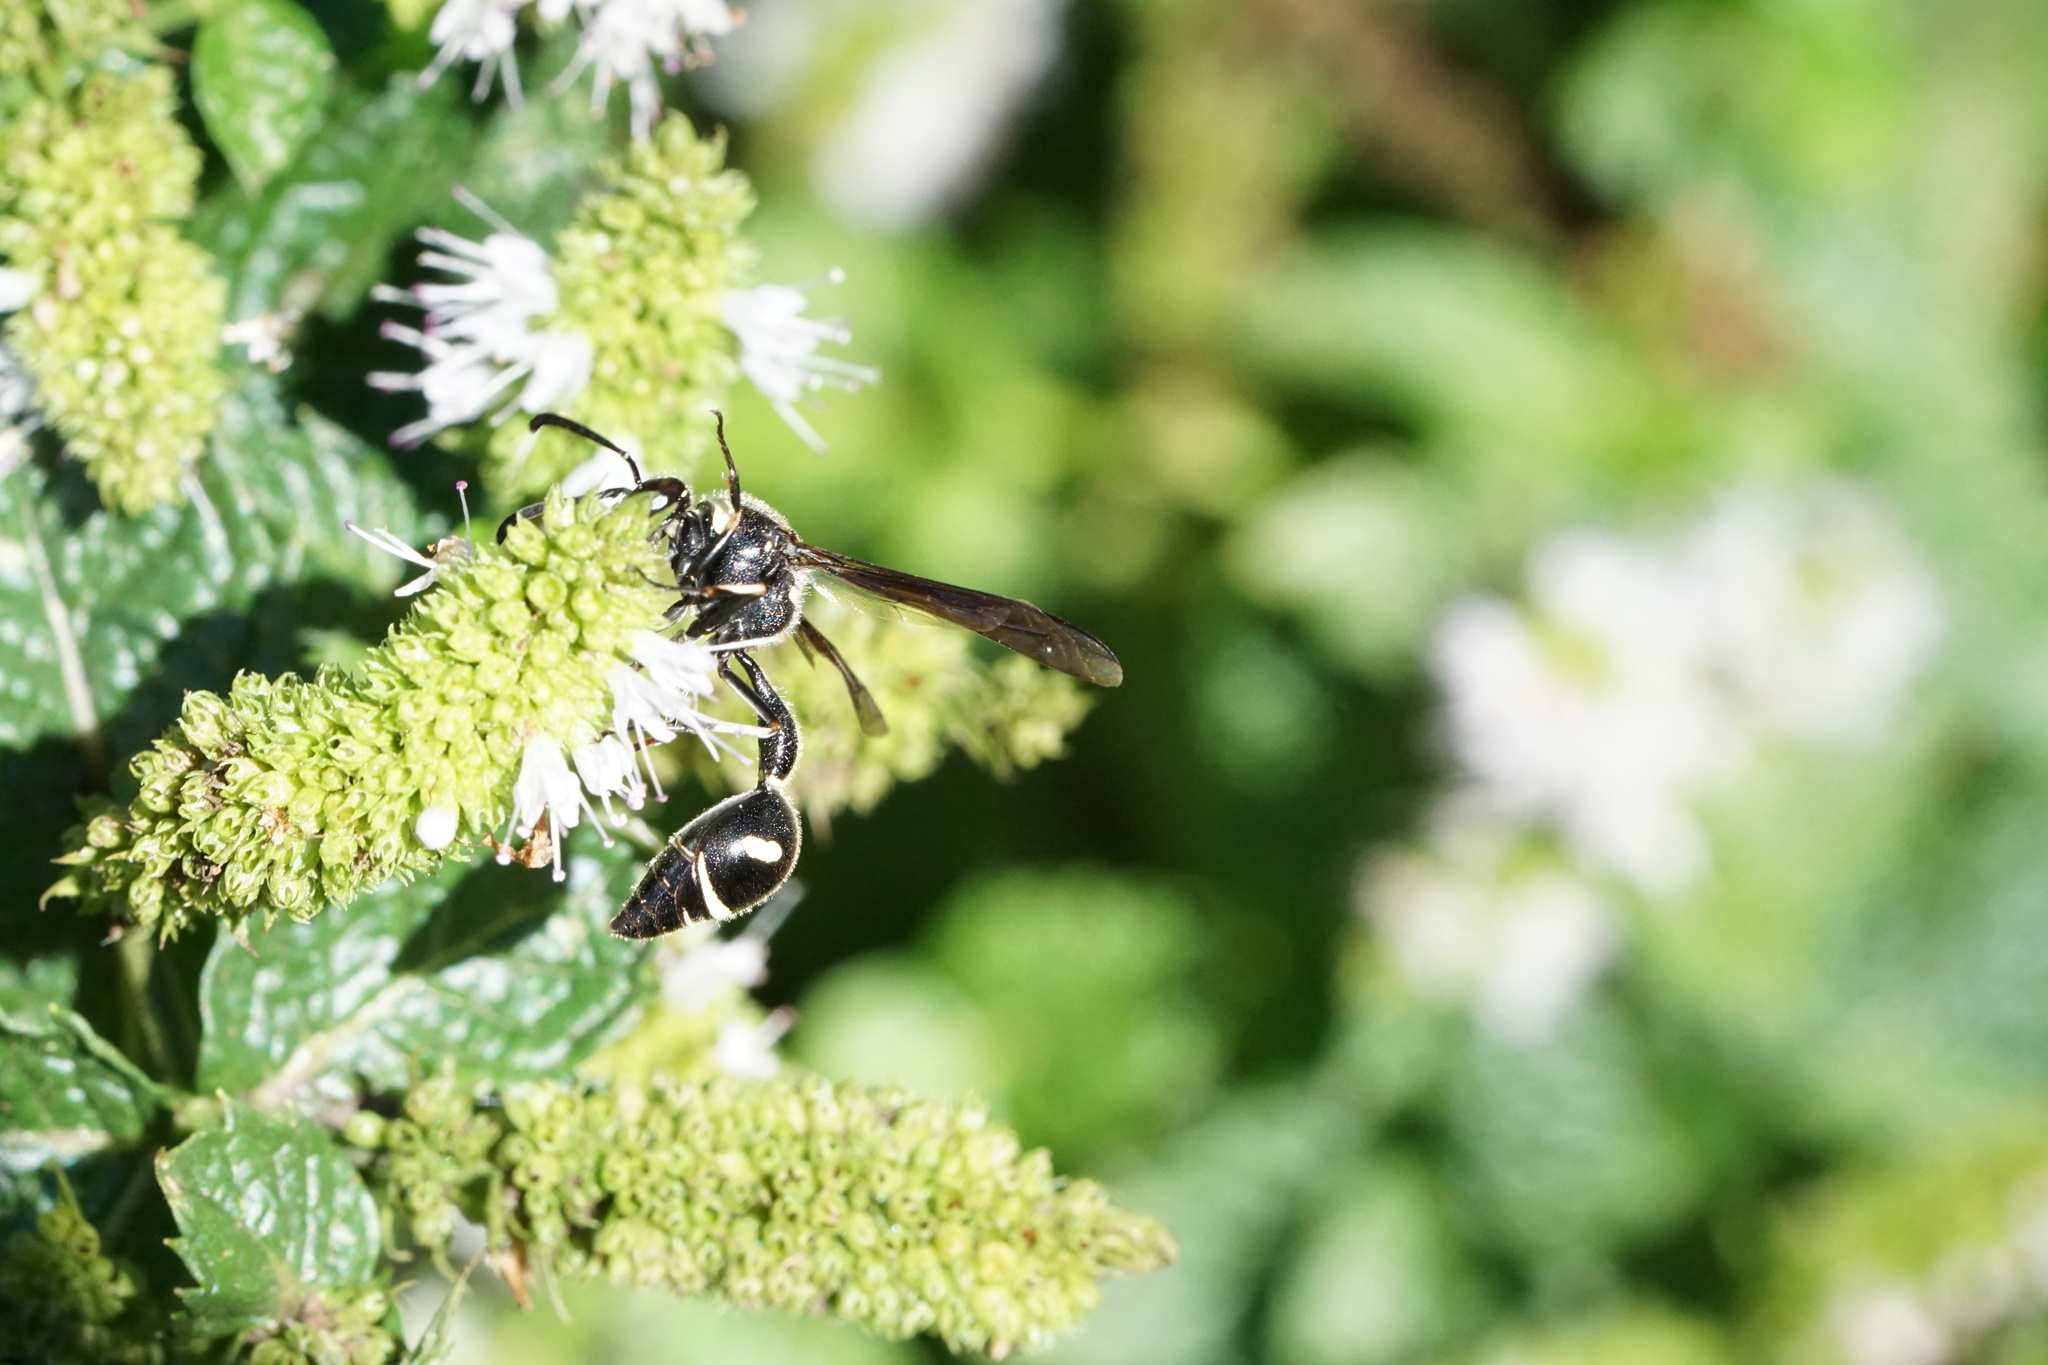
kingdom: Animalia
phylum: Arthropoda
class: Insecta
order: Hymenoptera
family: Vespidae
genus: Eumenes
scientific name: Eumenes fraternus
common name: Fraternal potter wasp
